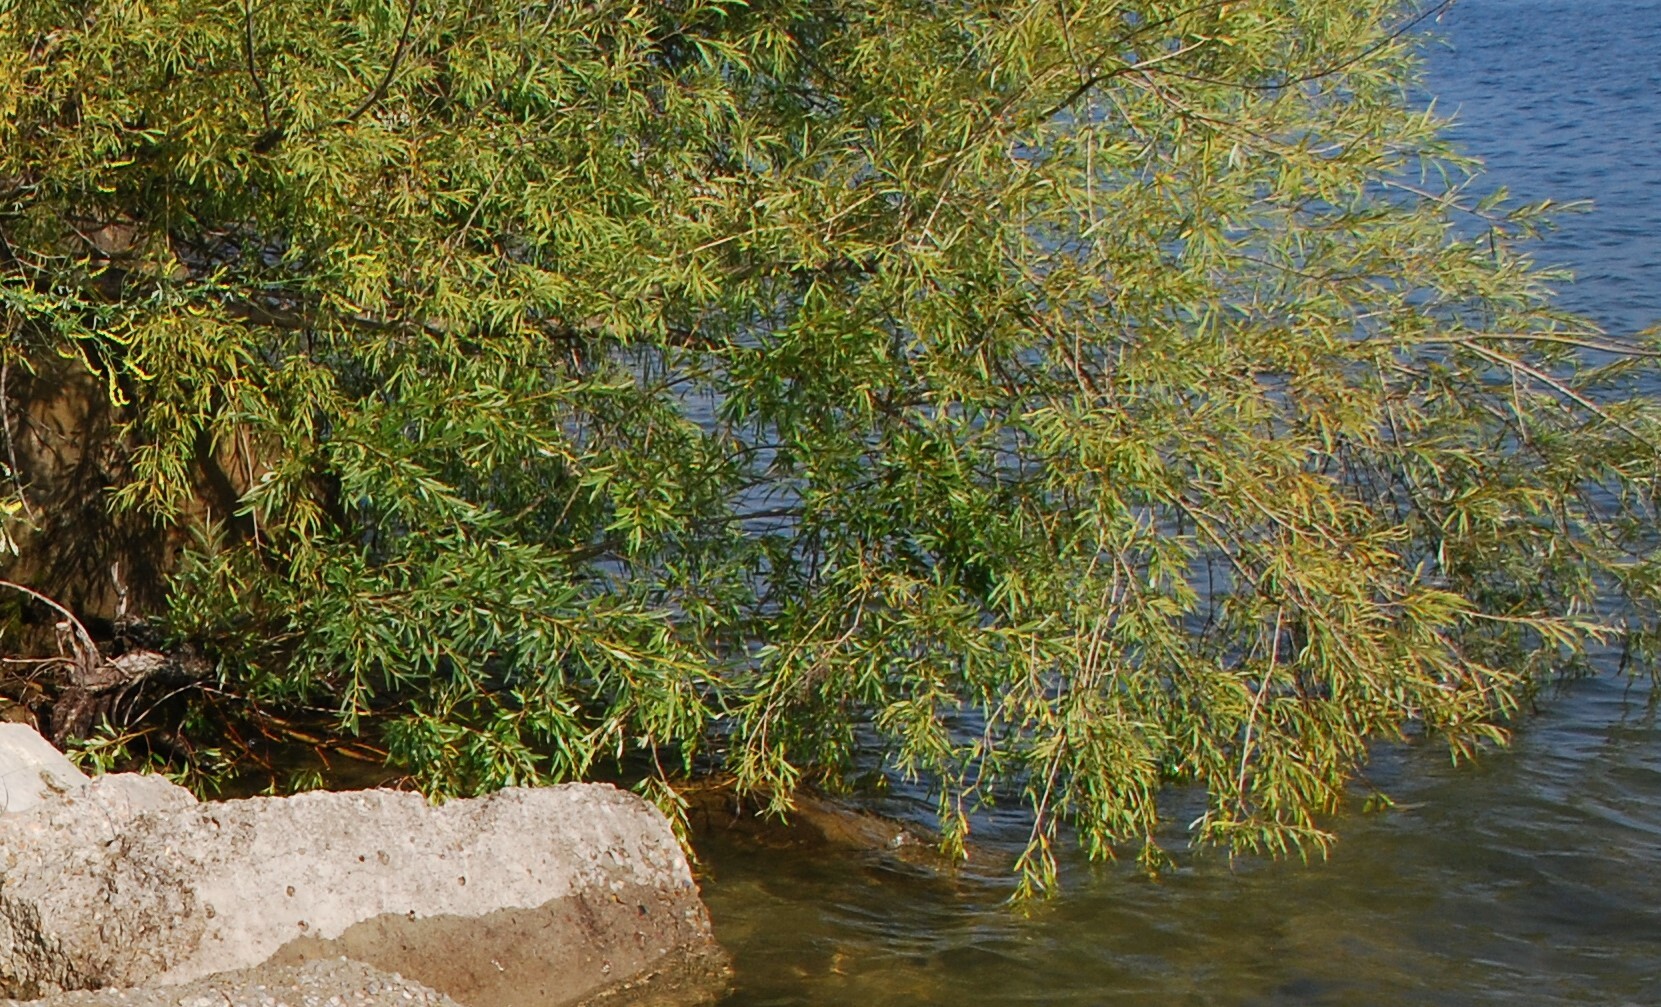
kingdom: Plantae
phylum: Tracheophyta
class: Magnoliopsida
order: Malpighiales
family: Salicaceae
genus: Salix
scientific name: Salix rorida
